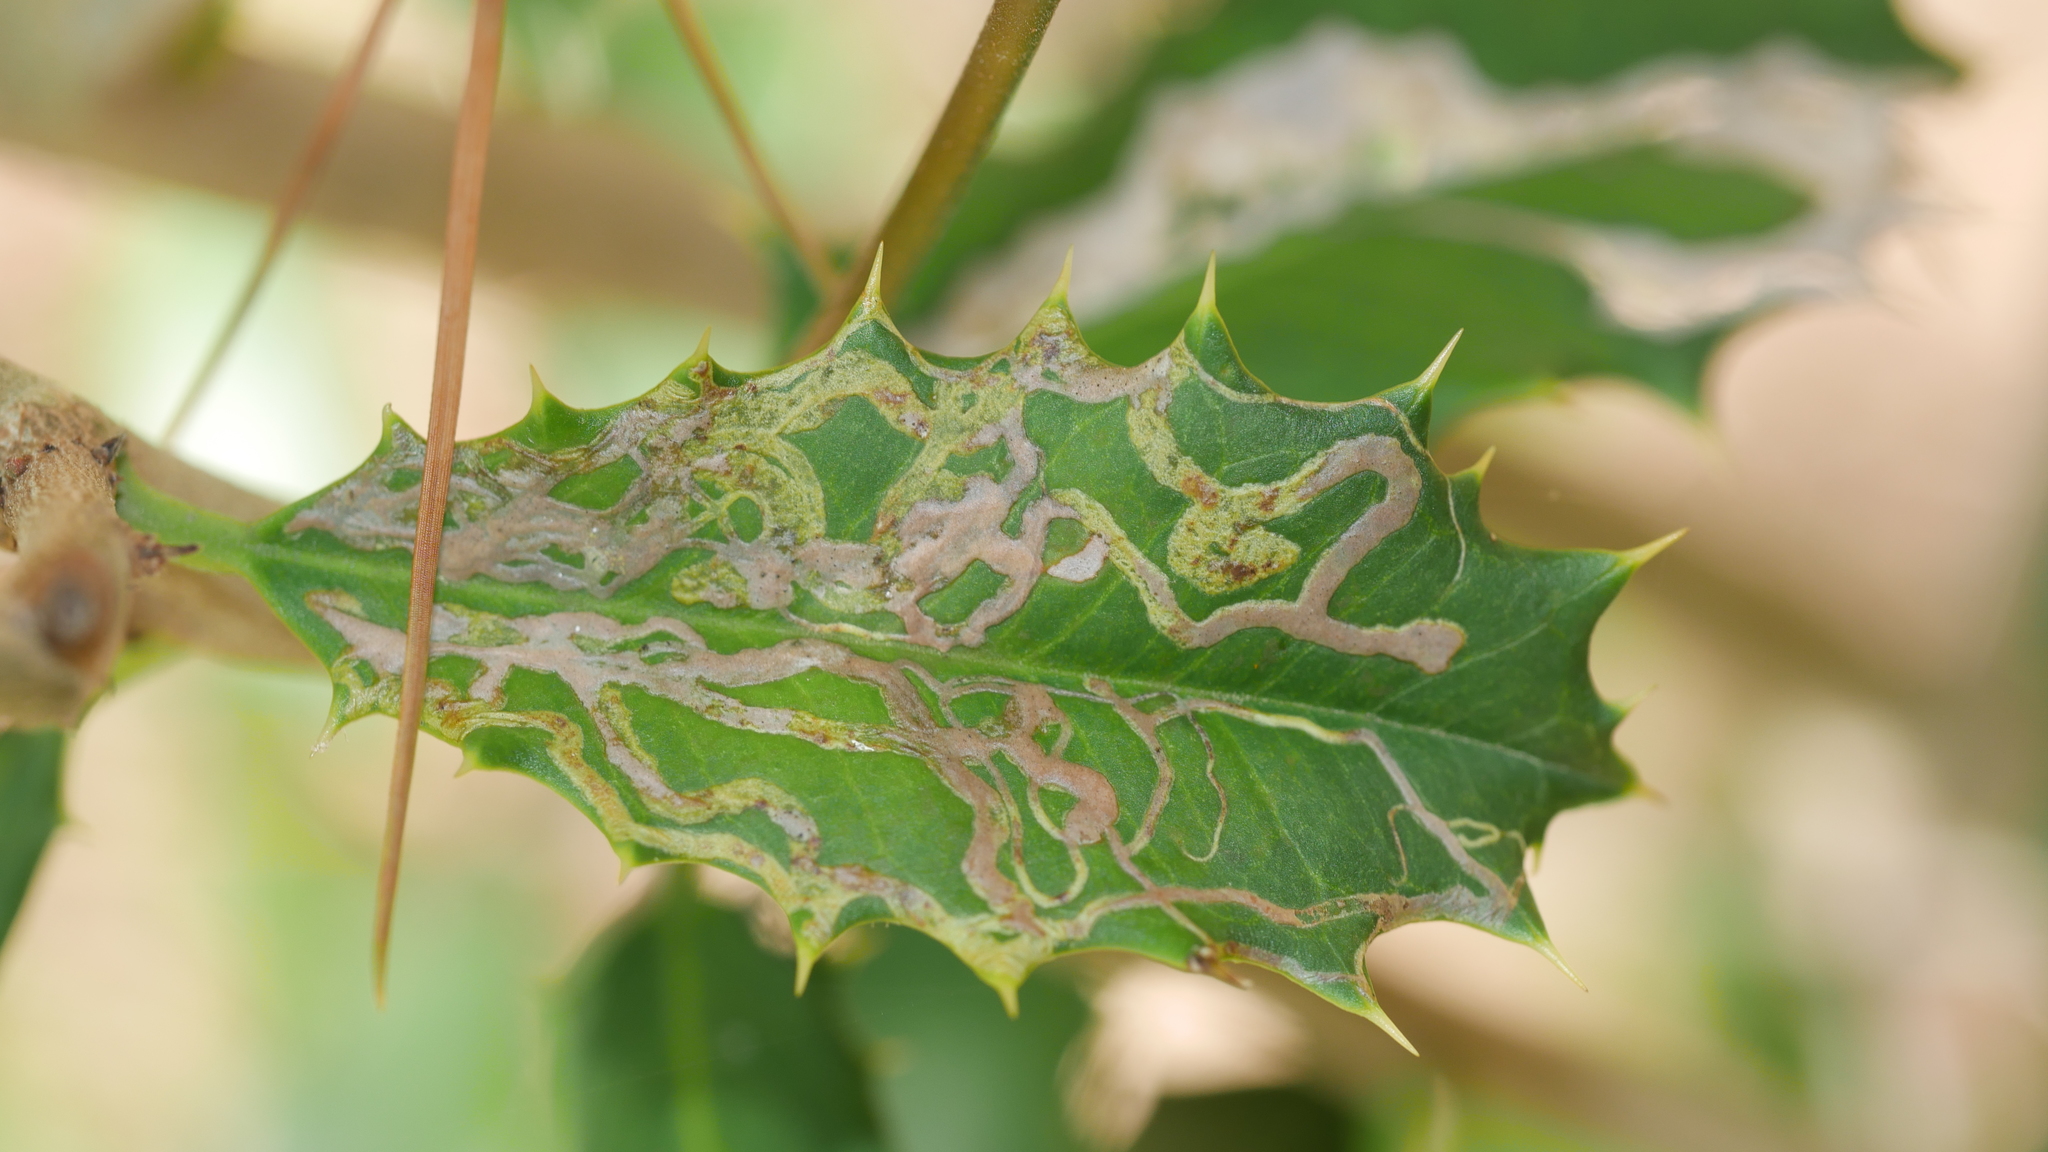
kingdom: Animalia
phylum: Arthropoda
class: Insecta
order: Diptera
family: Agromyzidae
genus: Phytomyza
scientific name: Phytomyza opacae
